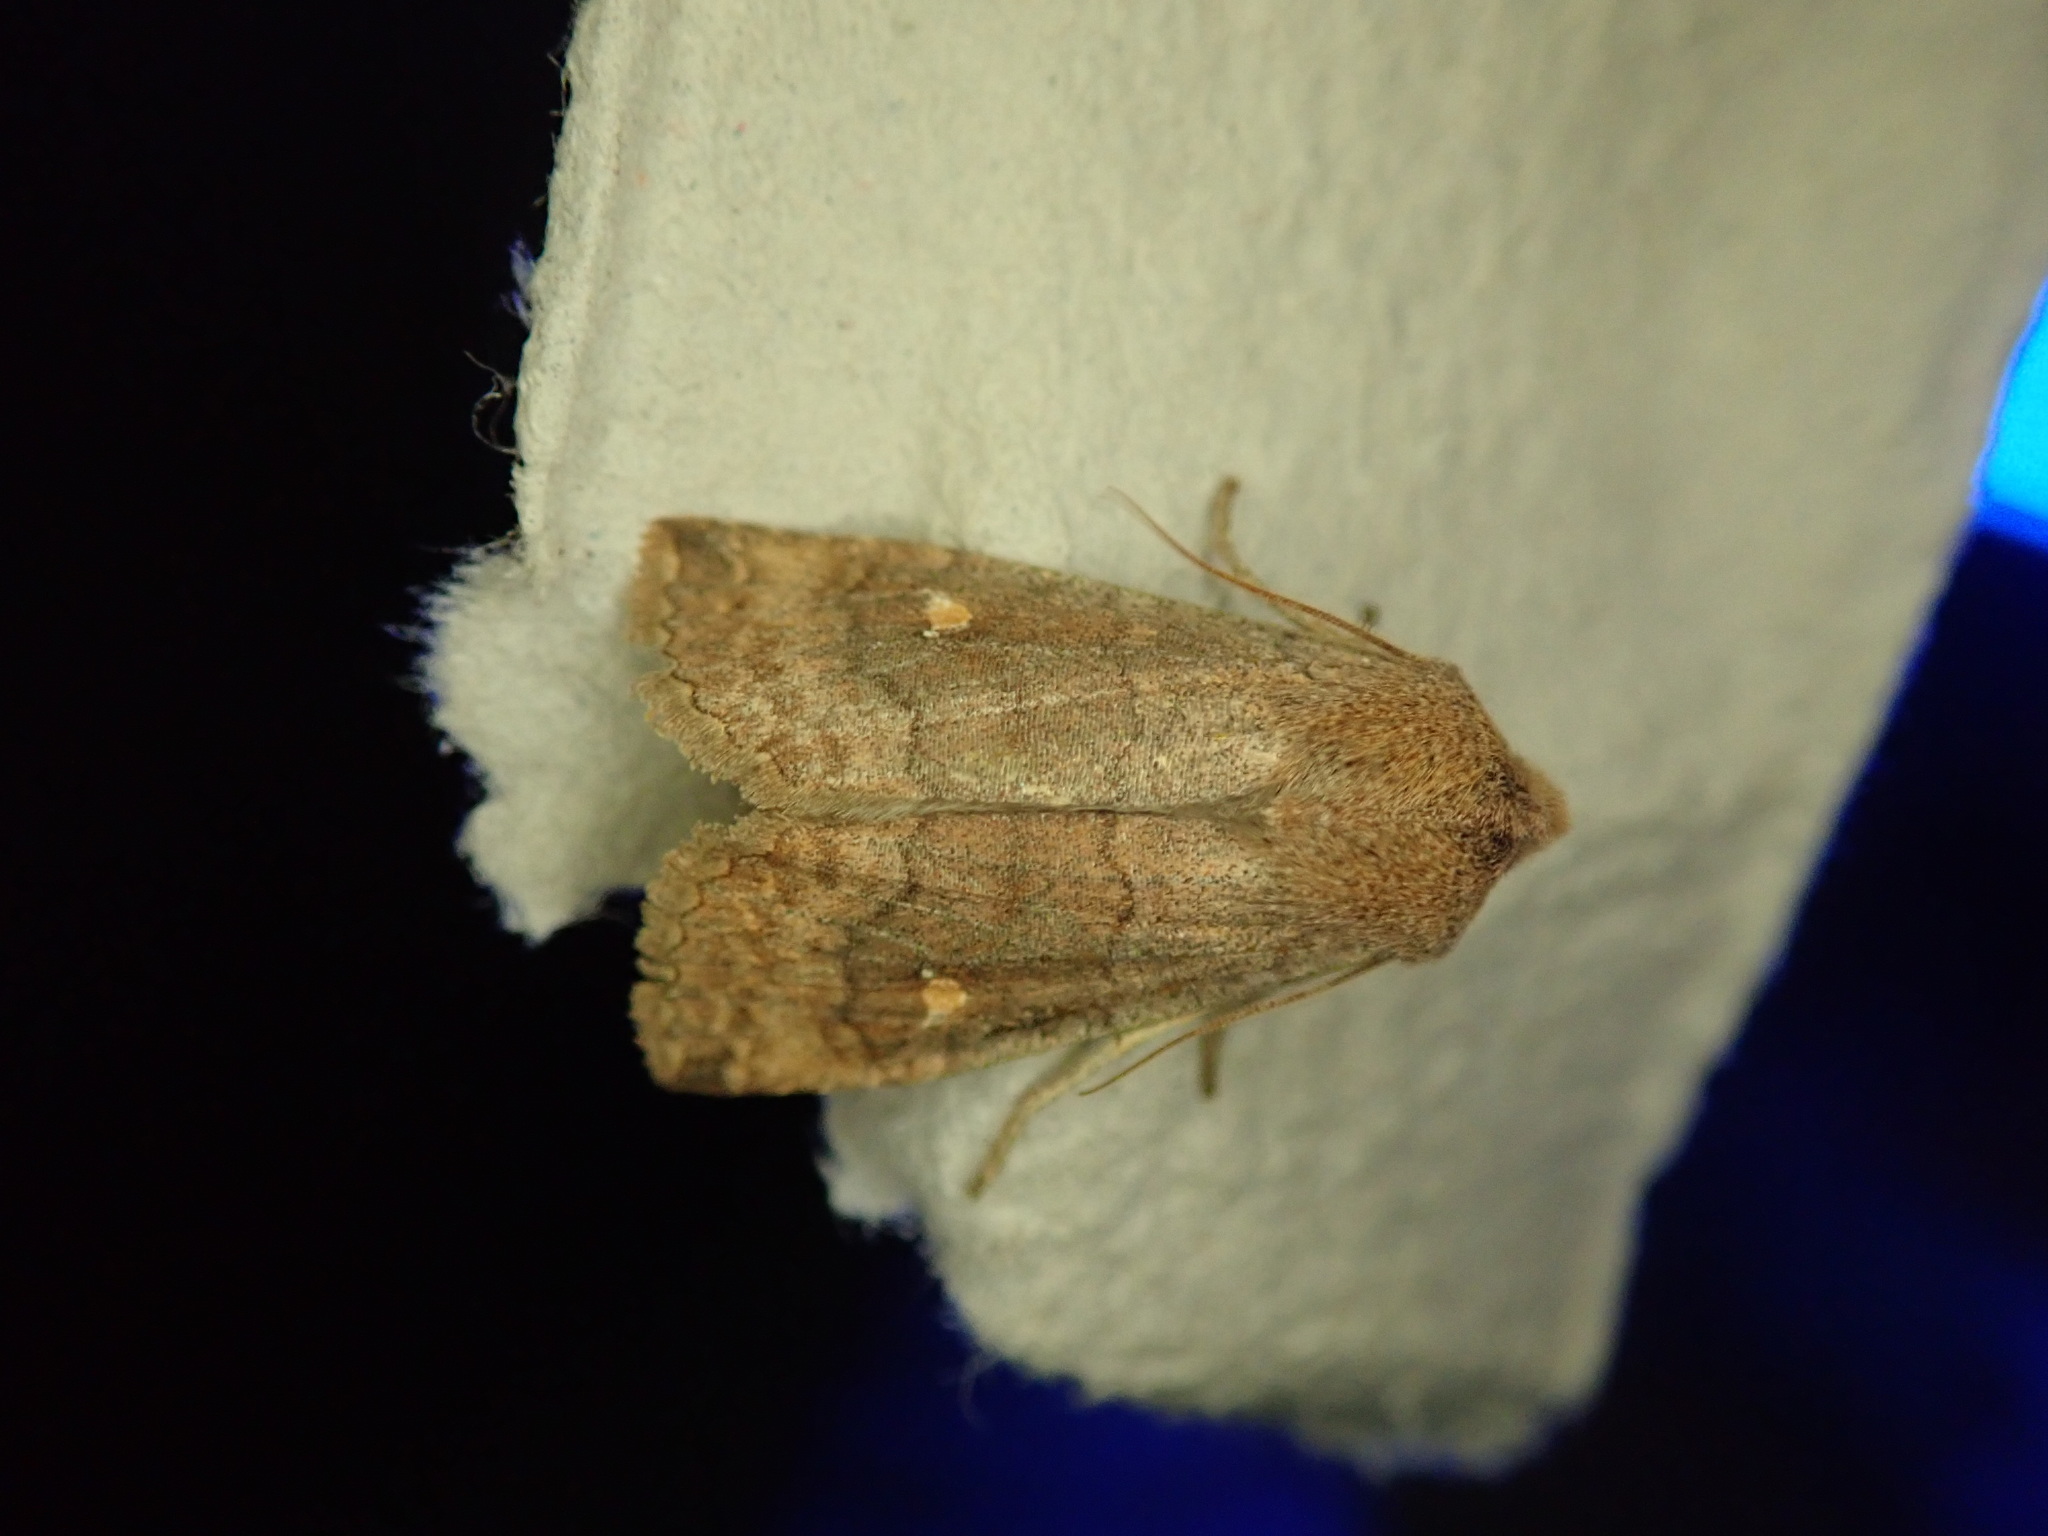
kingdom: Animalia
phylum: Arthropoda
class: Insecta
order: Lepidoptera
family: Noctuidae
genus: Eupsilia
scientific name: Eupsilia transversa
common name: Satellite
